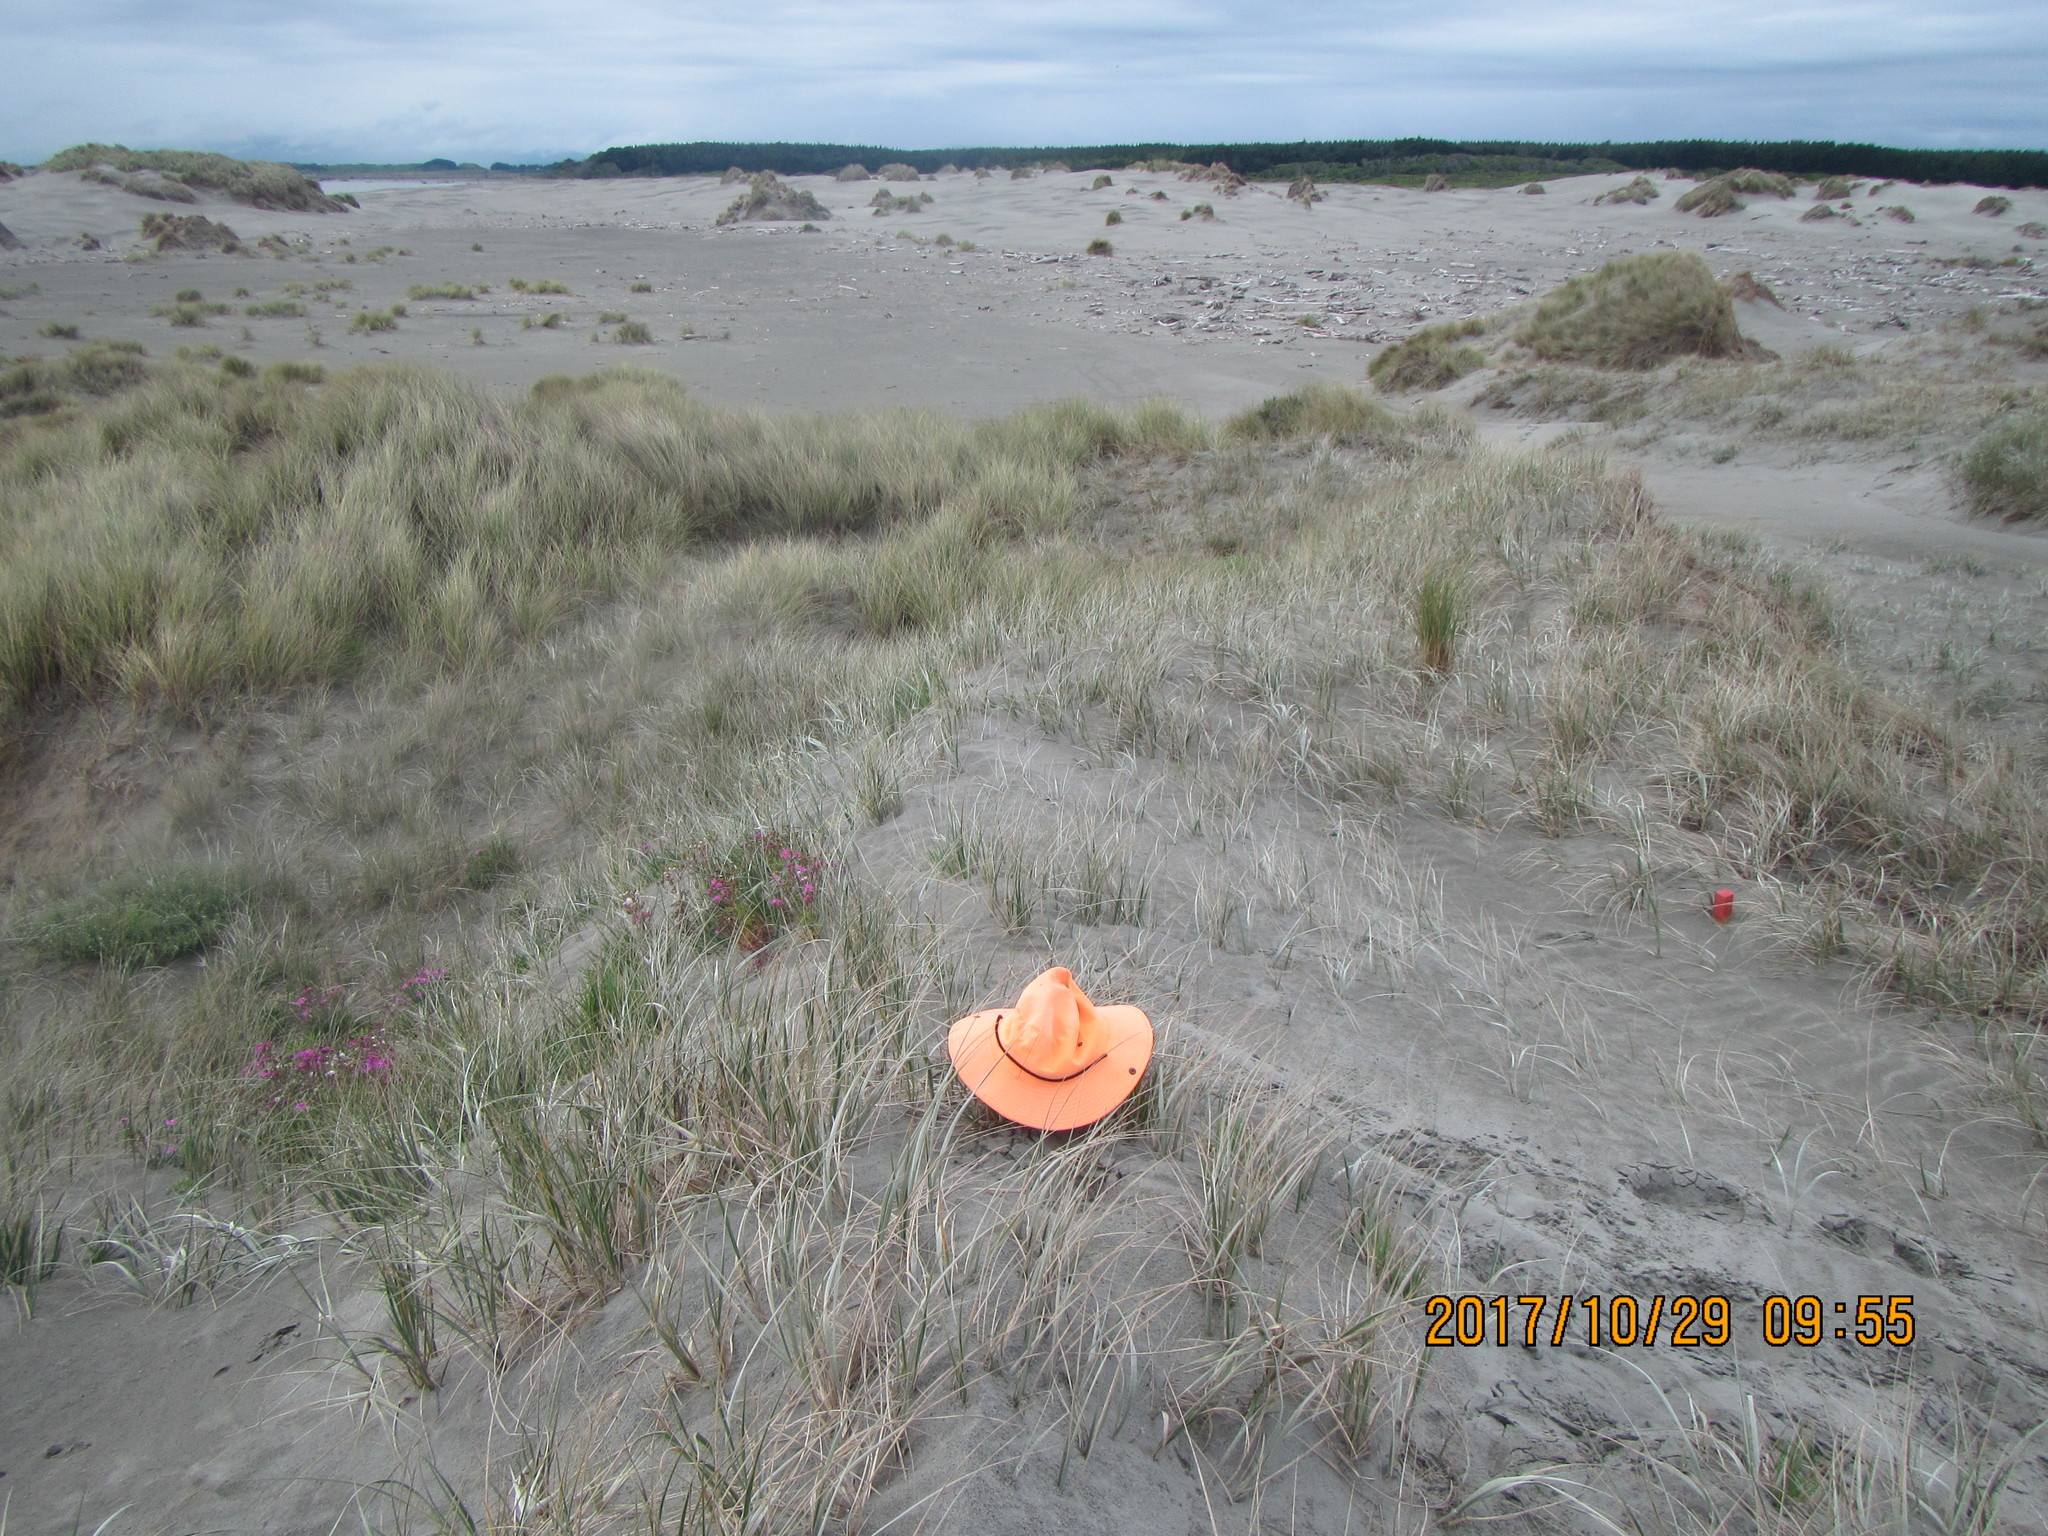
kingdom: Plantae
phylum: Tracheophyta
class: Liliopsida
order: Poales
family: Poaceae
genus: Lachnagrostis
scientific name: Lachnagrostis billardierei
